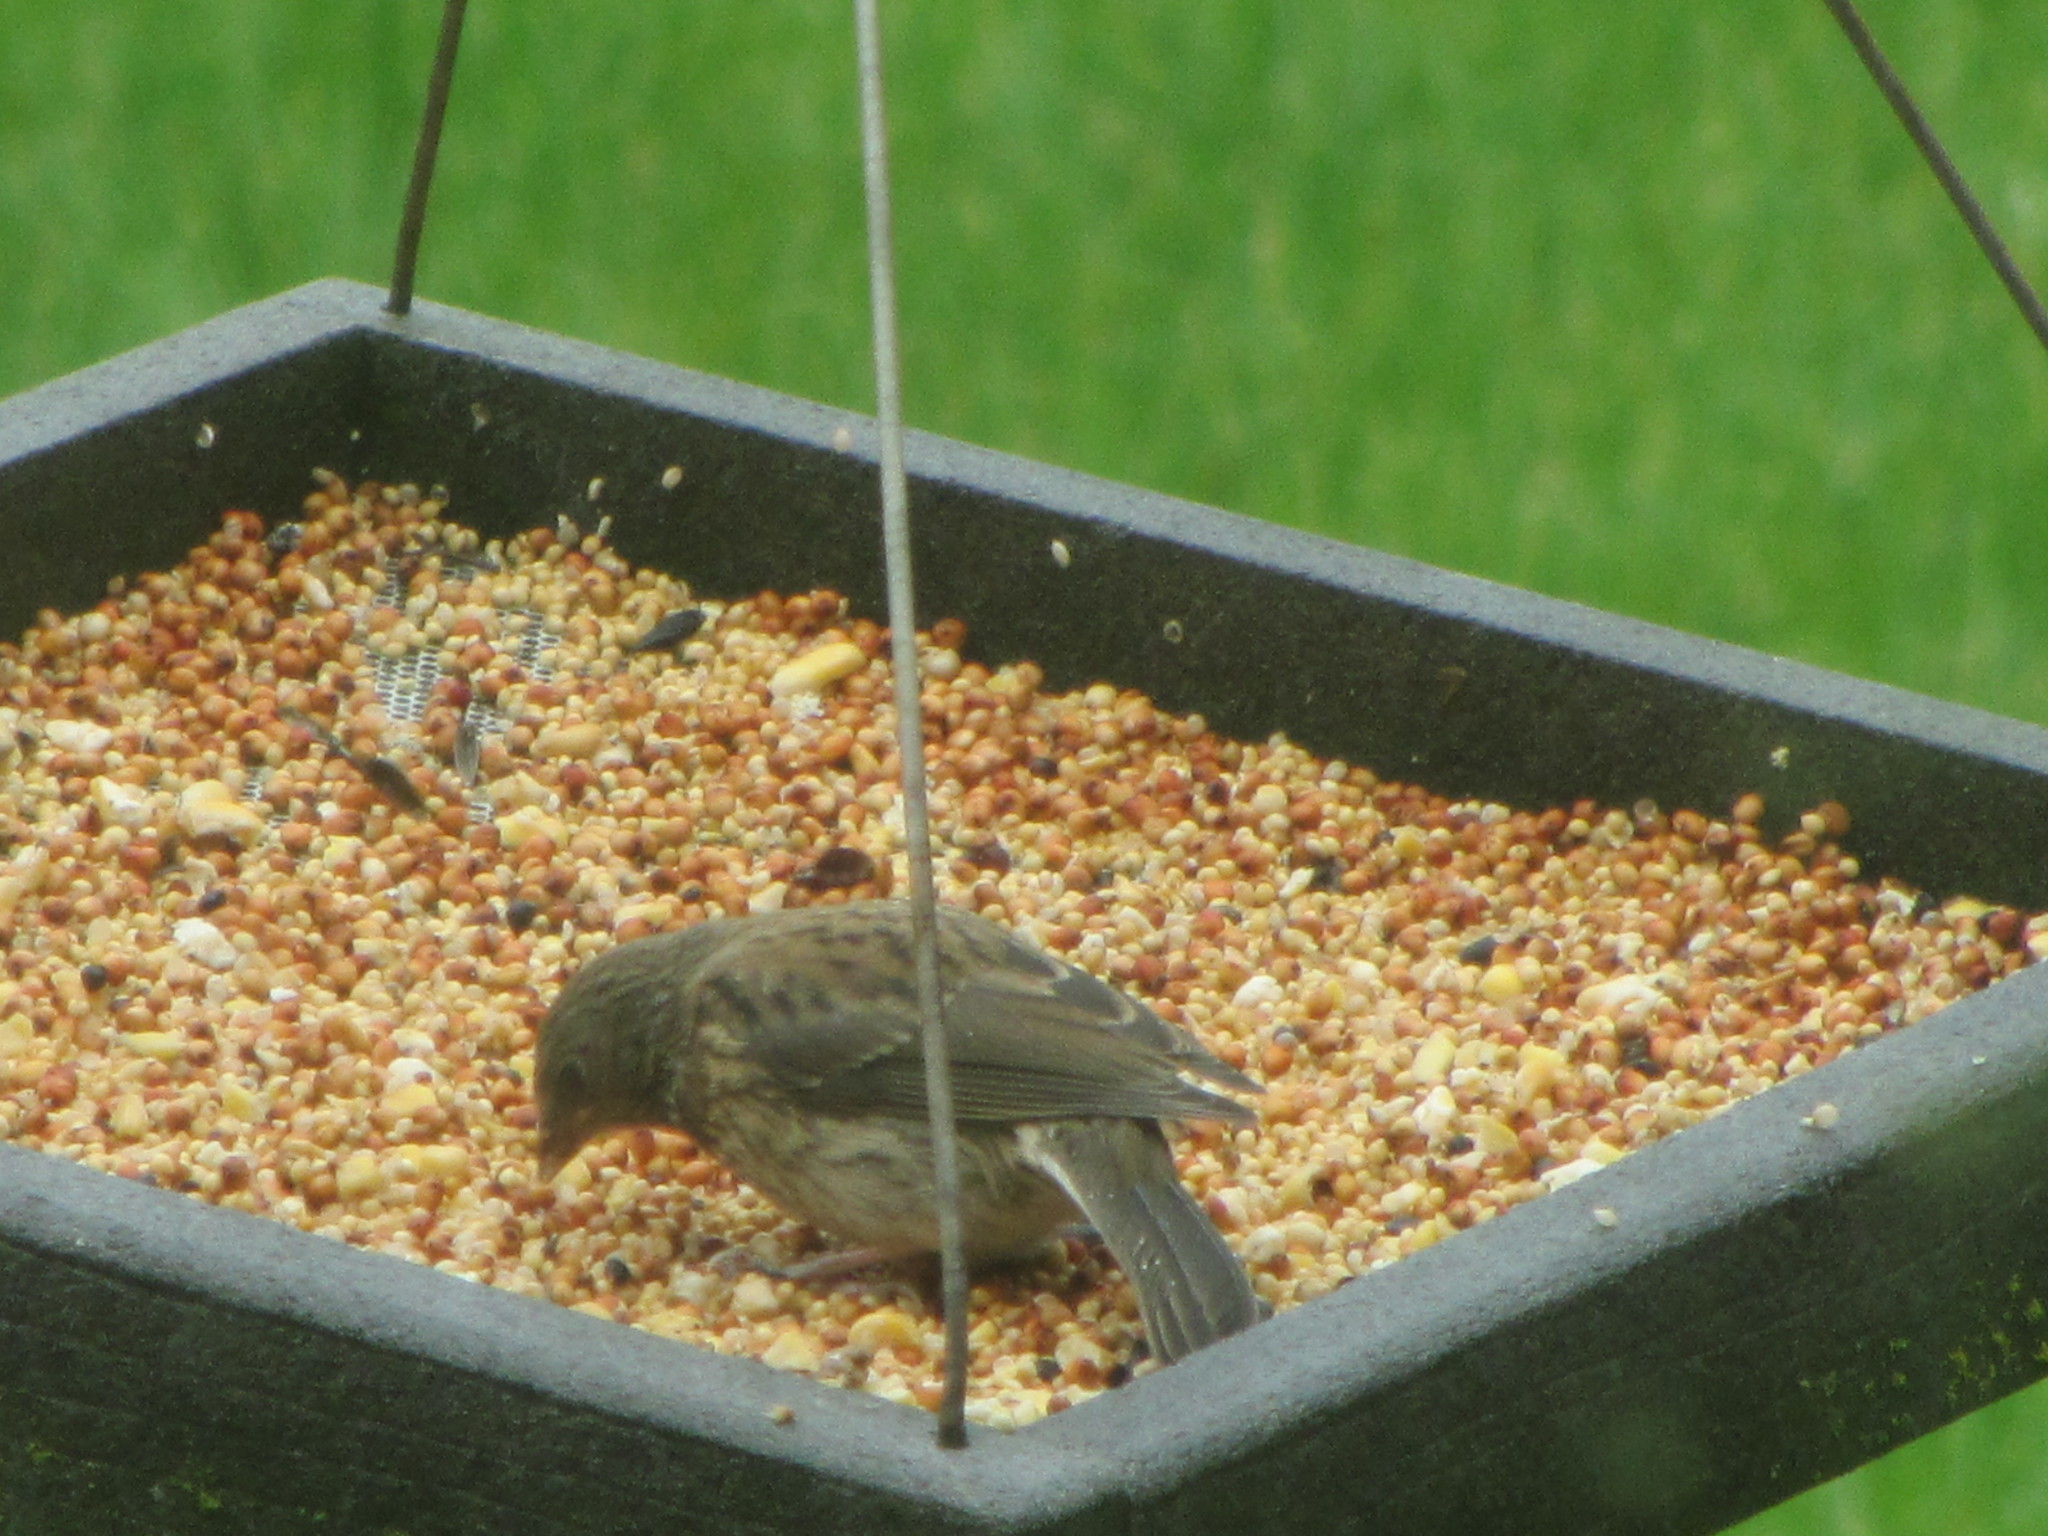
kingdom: Animalia
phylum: Chordata
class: Aves
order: Passeriformes
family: Passerellidae
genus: Junco
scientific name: Junco hyemalis
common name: Dark-eyed junco
